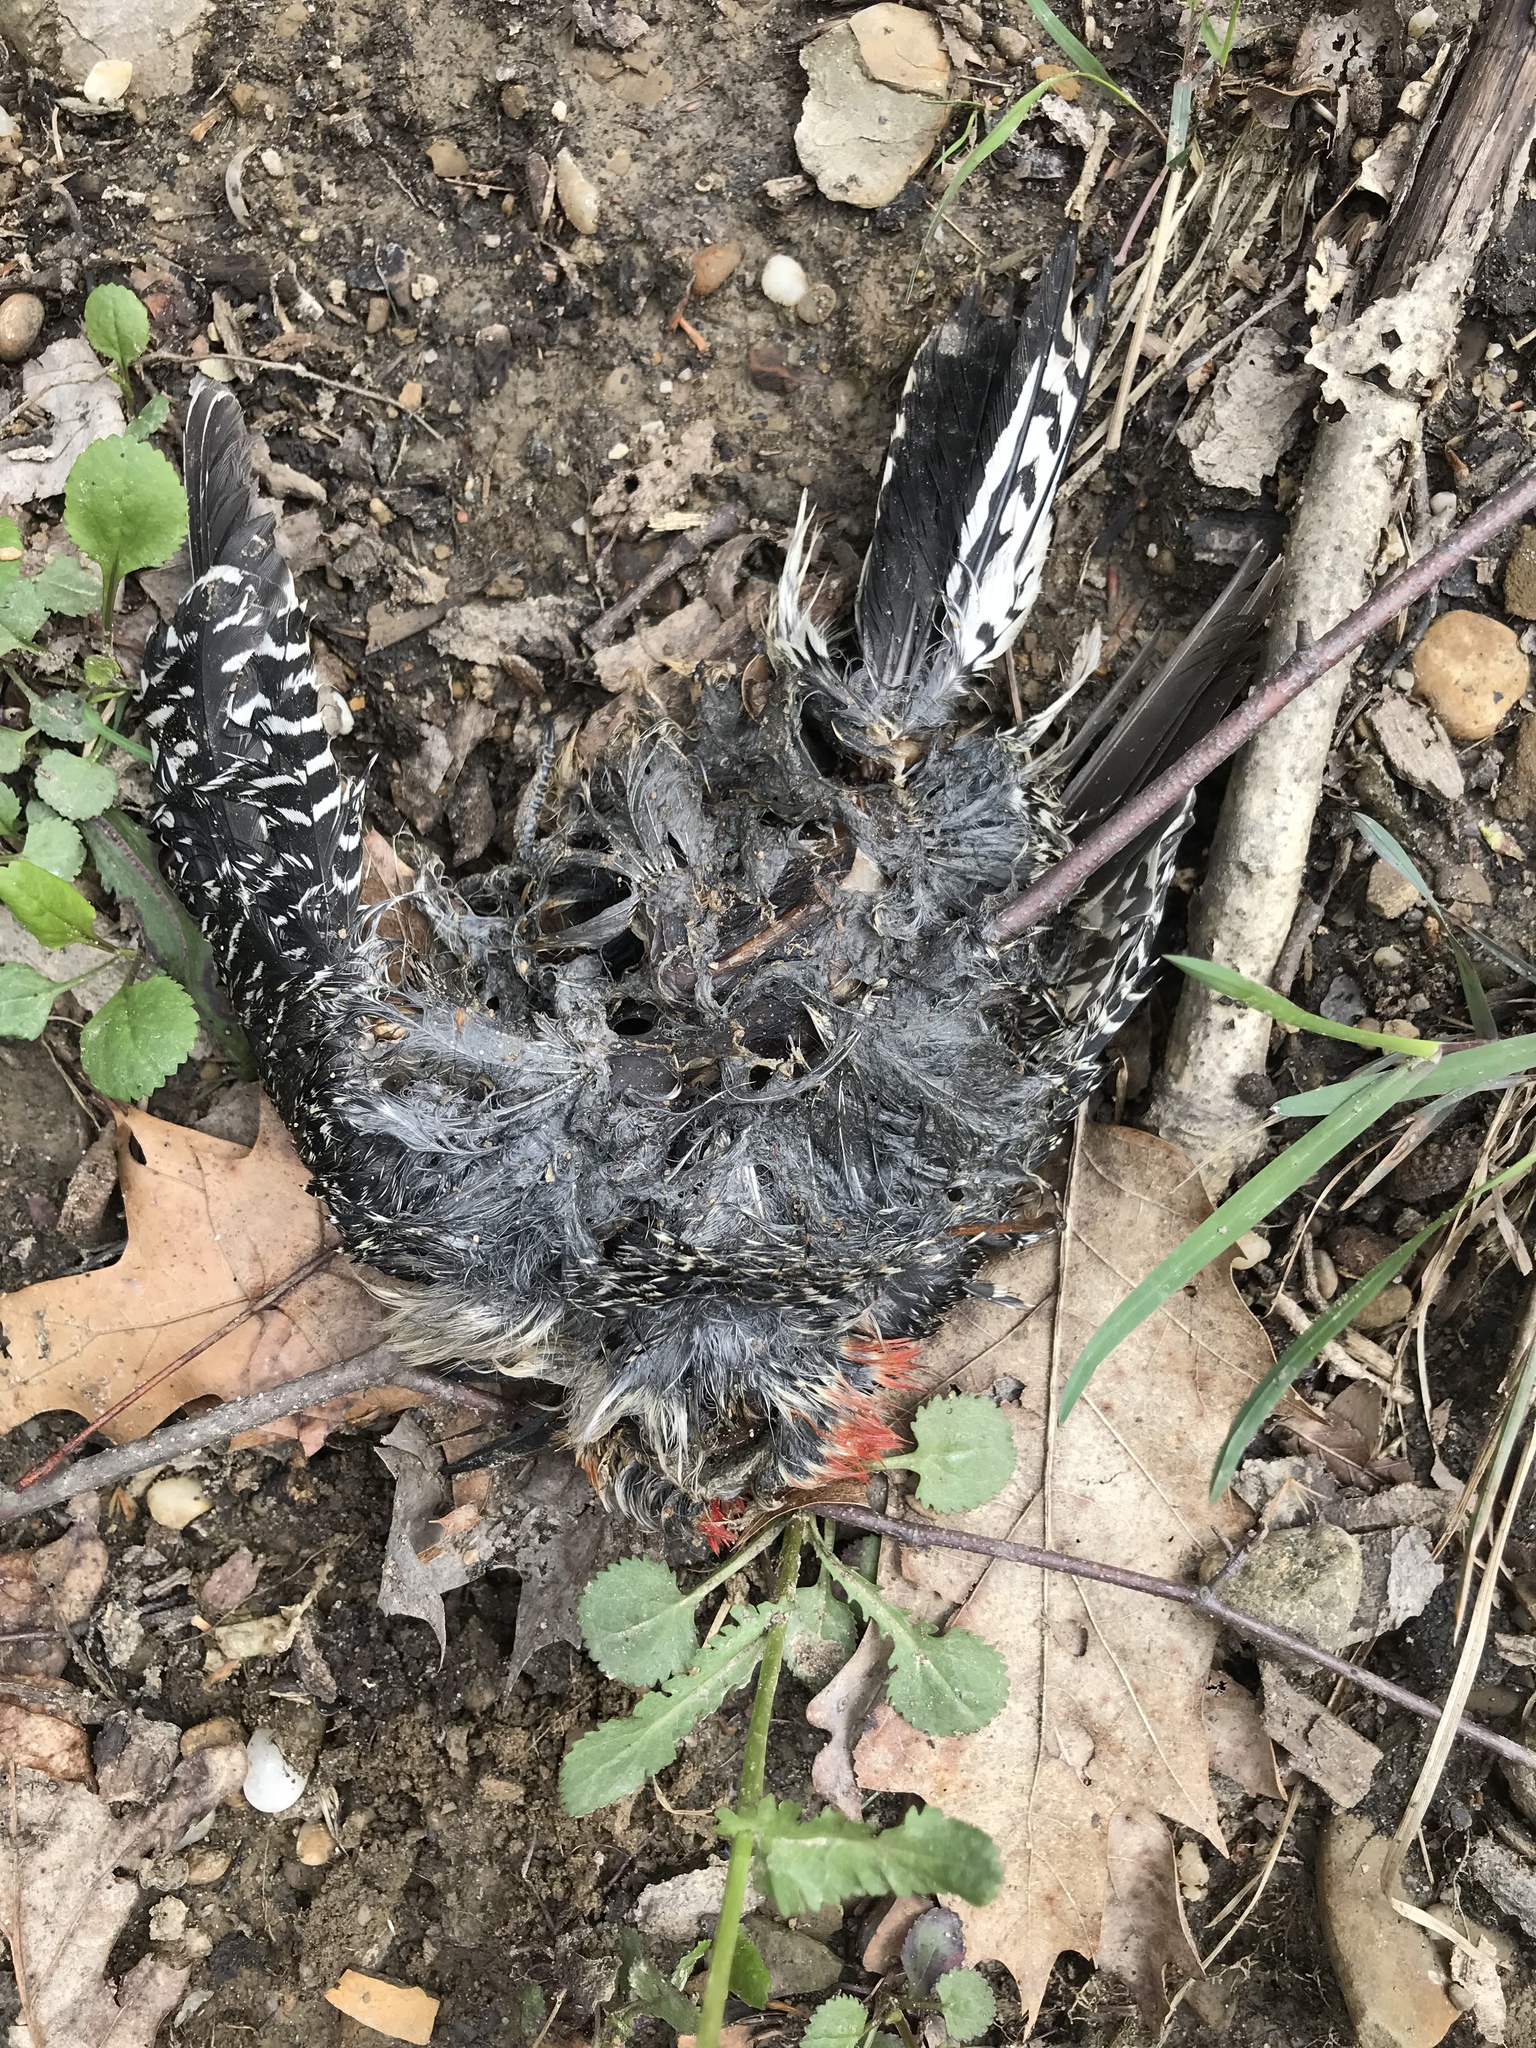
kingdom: Animalia
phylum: Chordata
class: Aves
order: Piciformes
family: Picidae
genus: Melanerpes
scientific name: Melanerpes carolinus
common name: Red-bellied woodpecker
